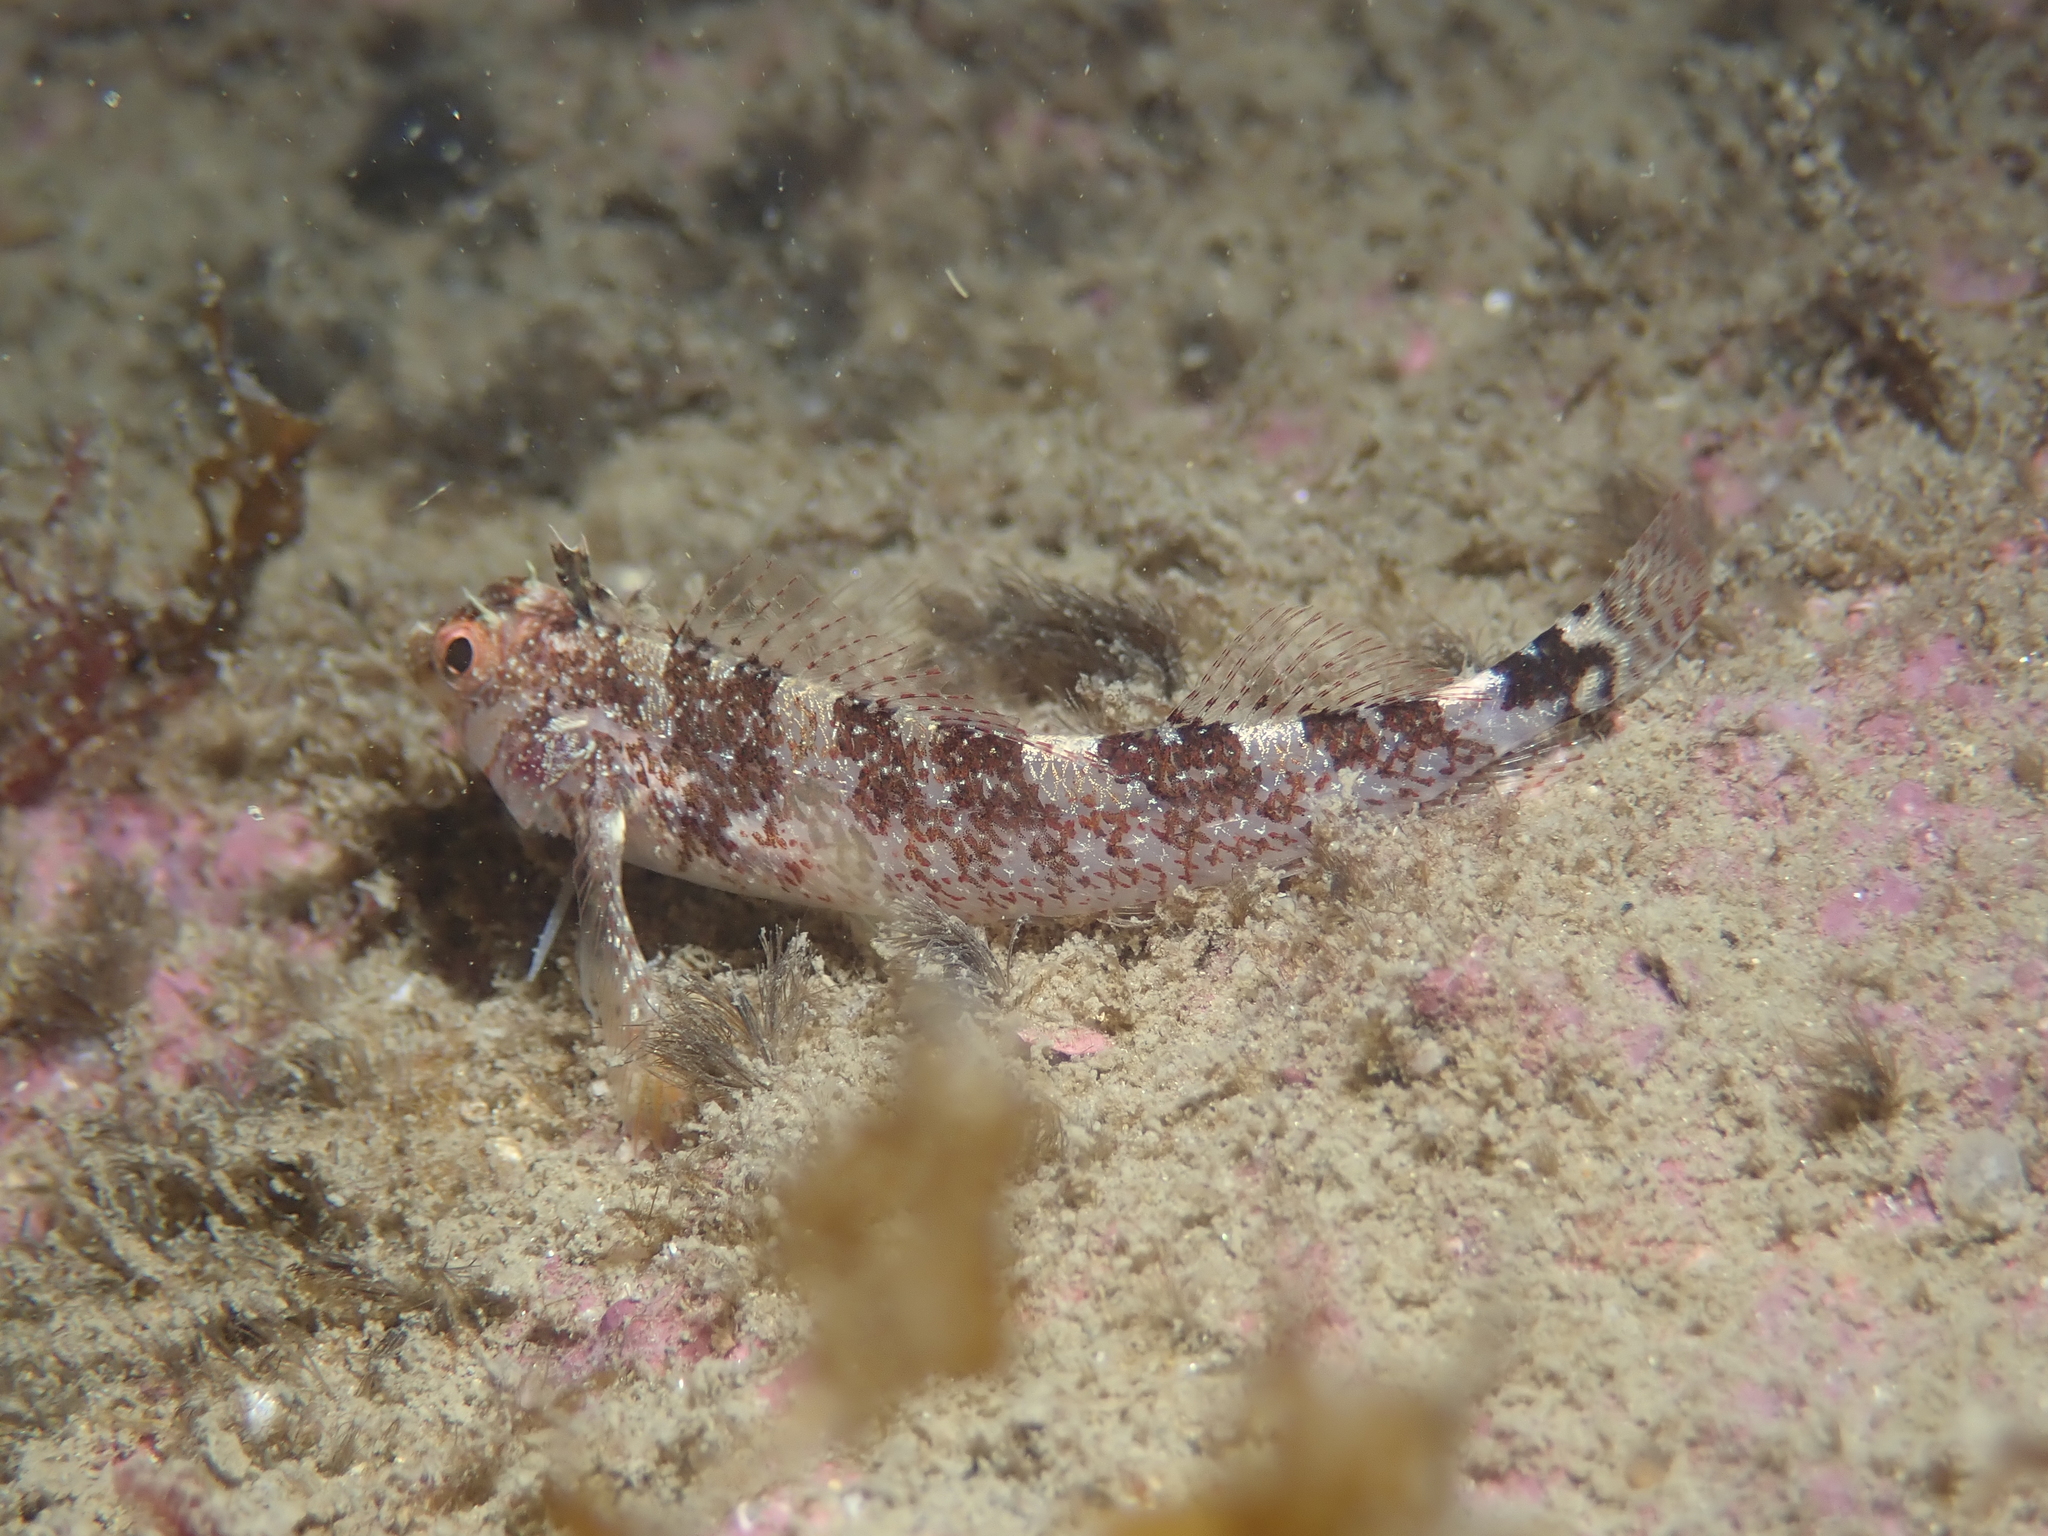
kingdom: Animalia
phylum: Chordata
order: Perciformes
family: Tripterygiidae
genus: Tripterygion
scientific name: Tripterygion delaisi
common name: Black-face blenny
